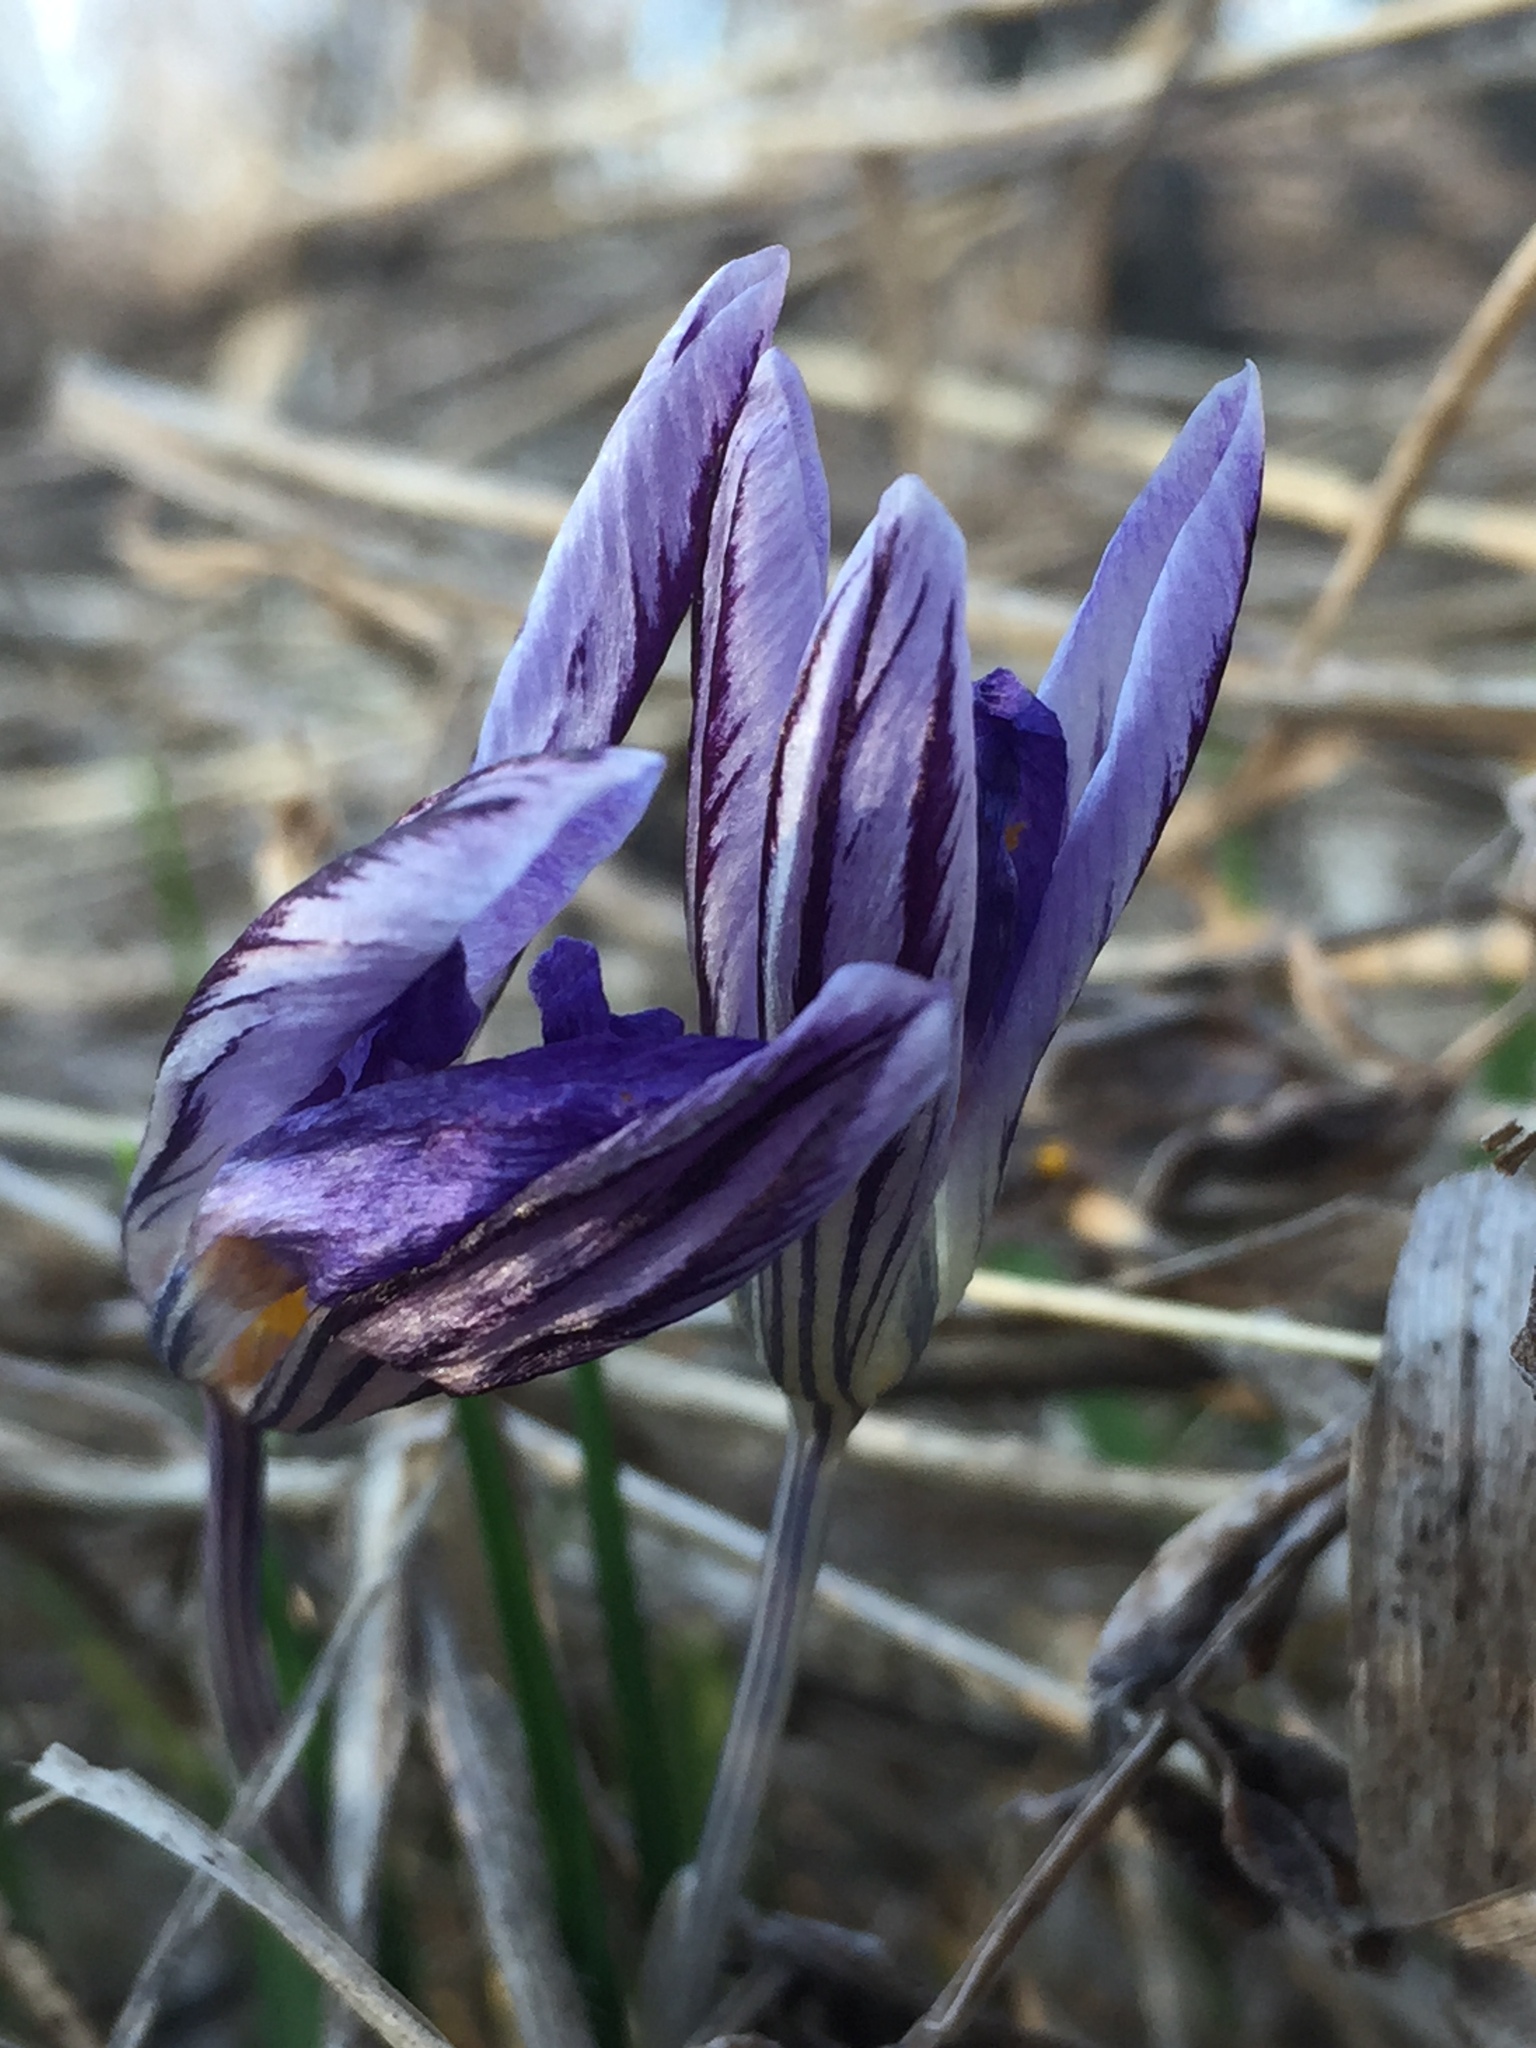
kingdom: Plantae
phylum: Tracheophyta
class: Liliopsida
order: Asparagales
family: Iridaceae
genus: Crocus
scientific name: Crocus reticulatus
